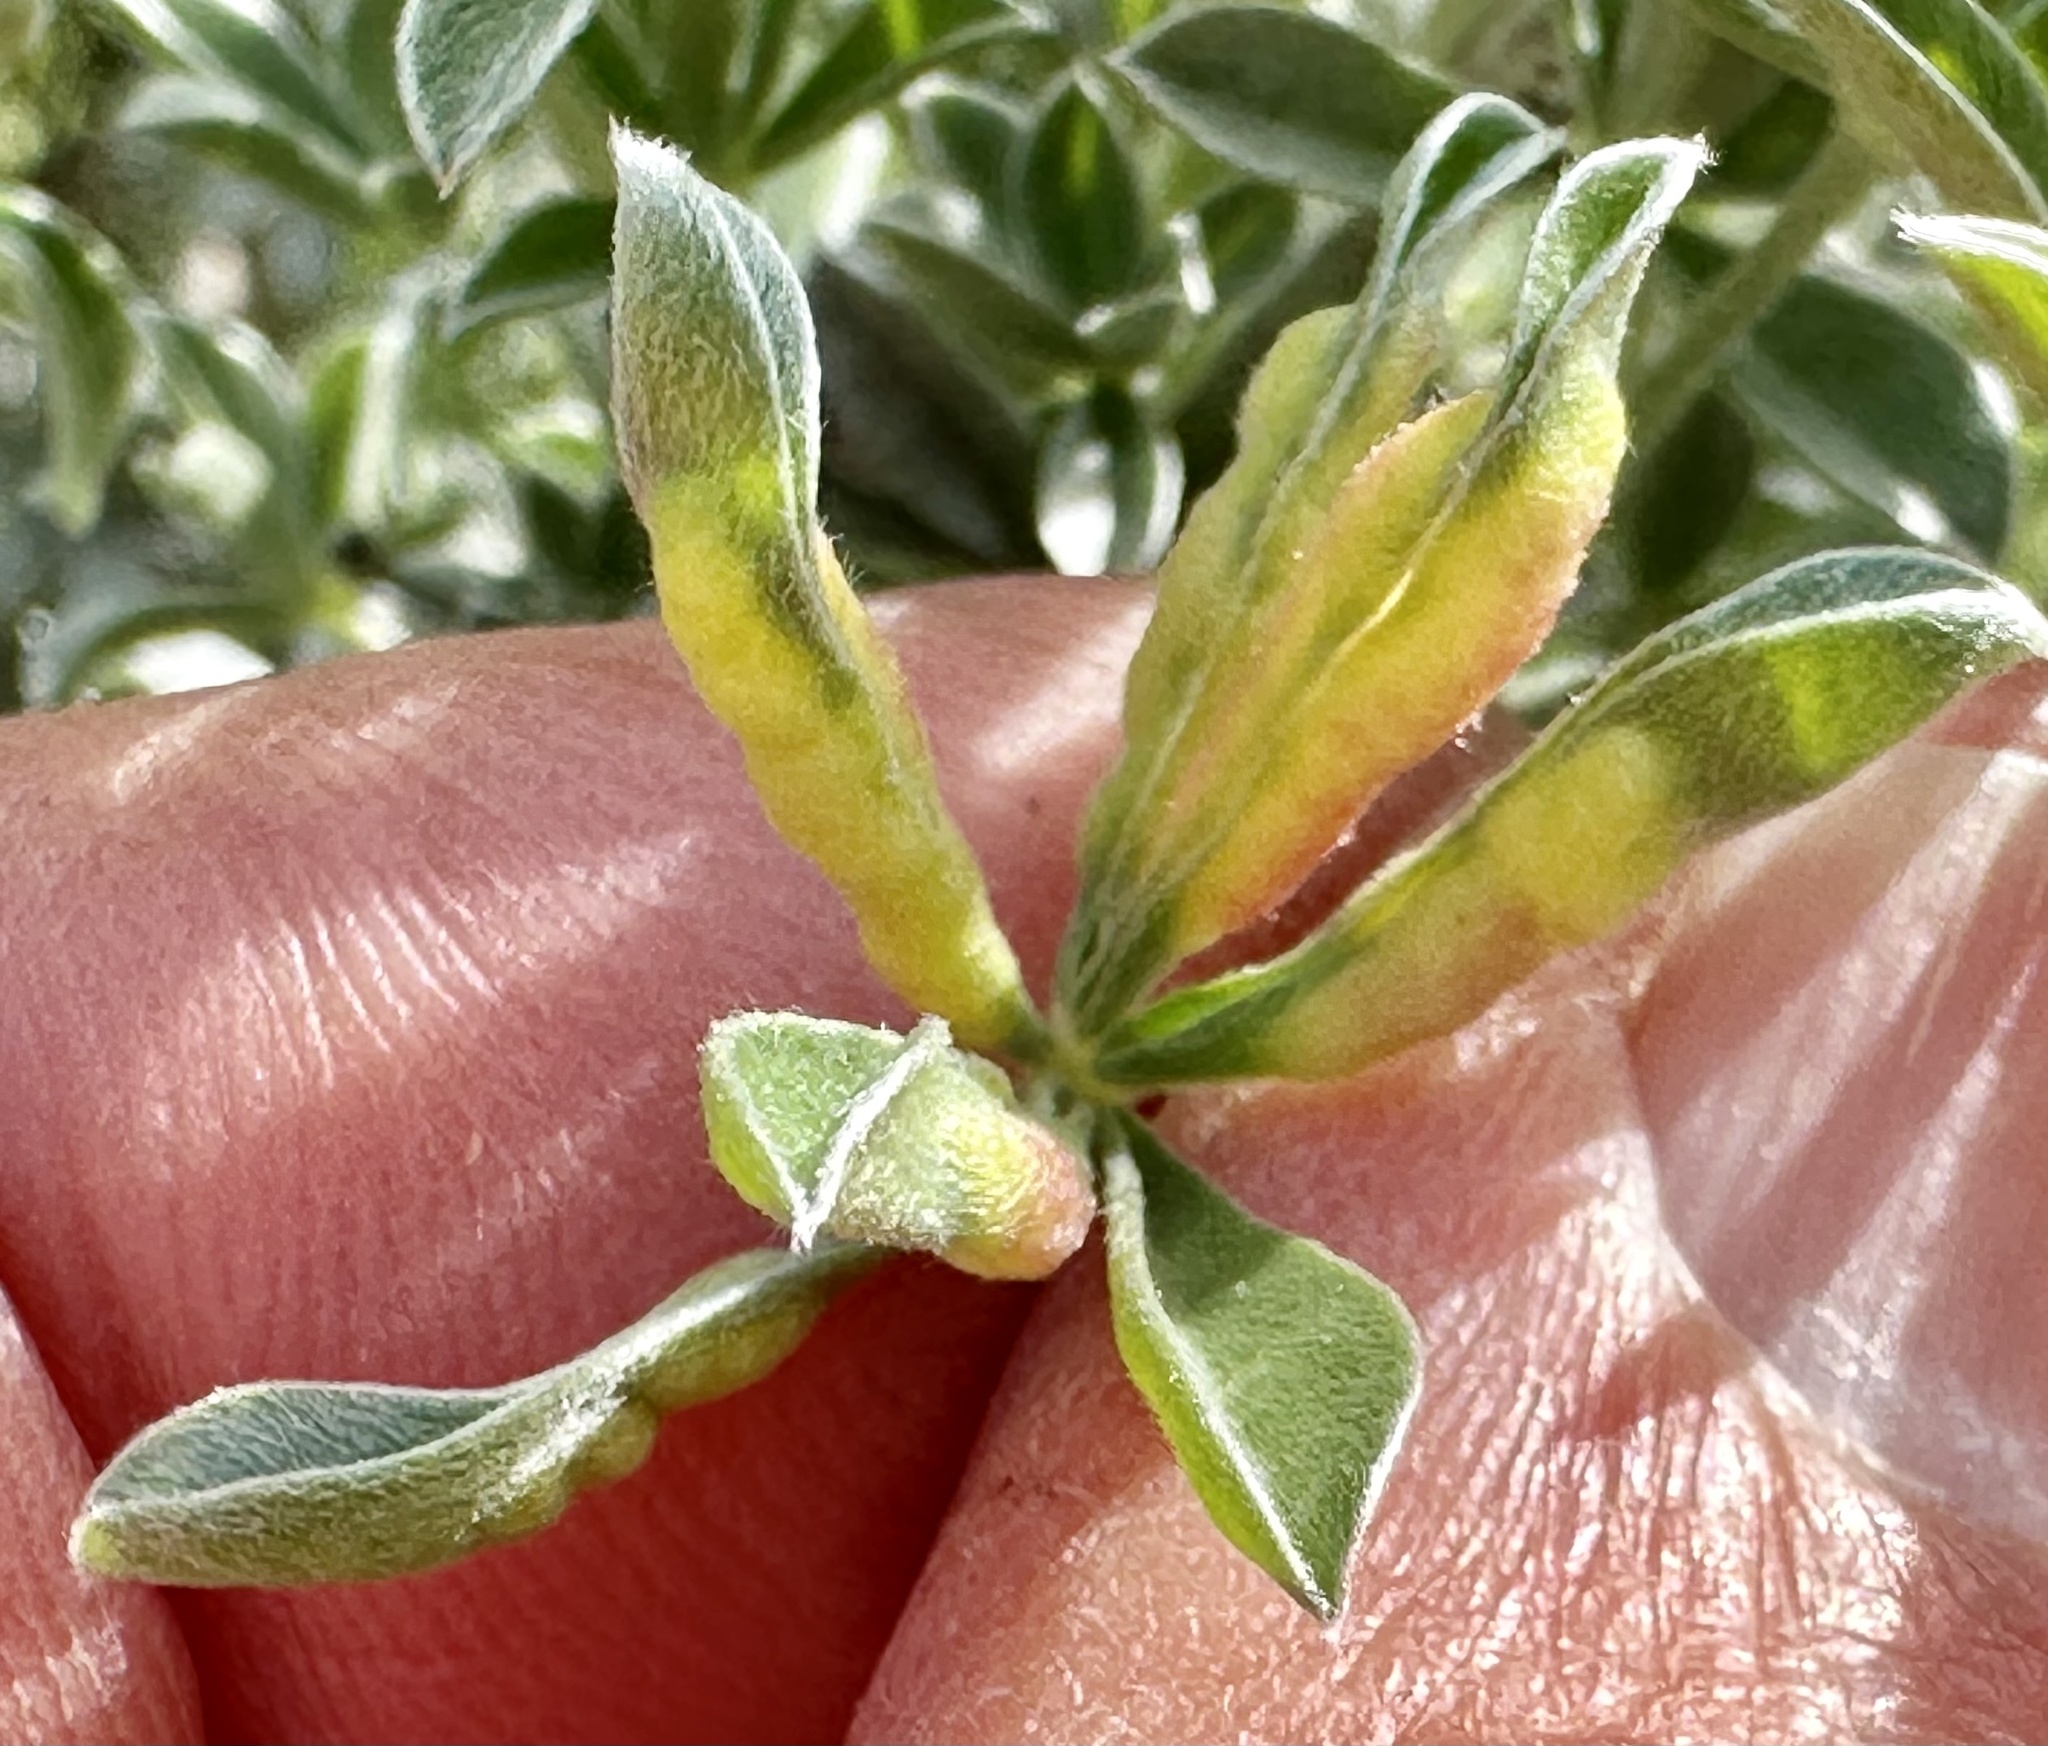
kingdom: Animalia
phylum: Arthropoda
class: Insecta
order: Diptera
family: Cecidomyiidae
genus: Dasineura
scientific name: Dasineura lupinorum
